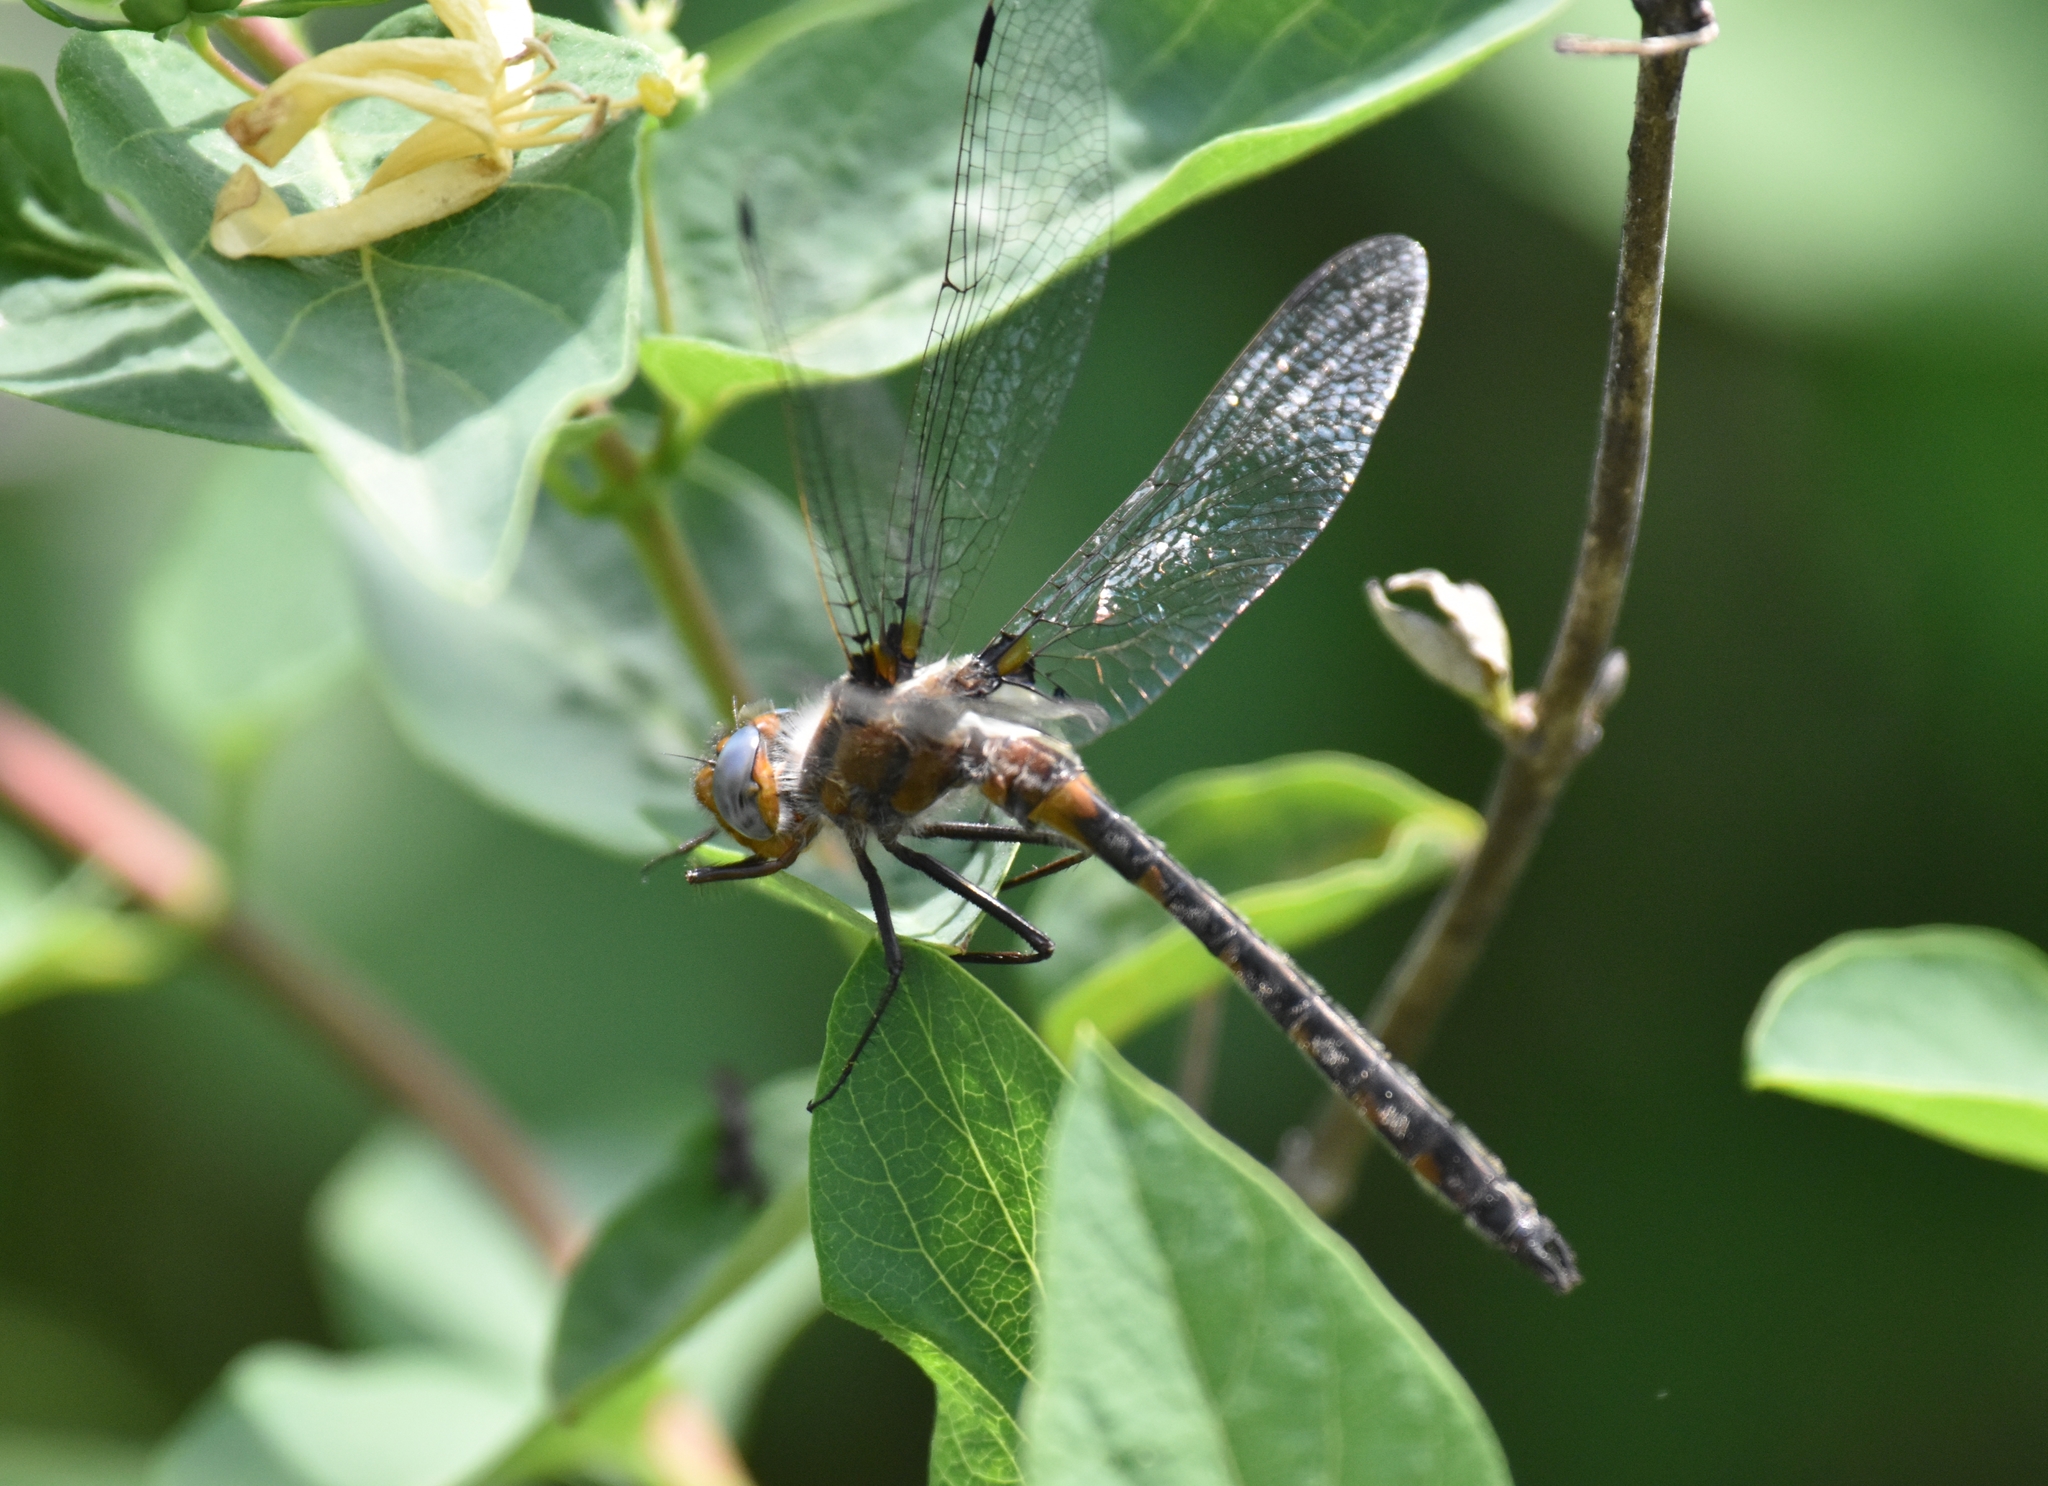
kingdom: Animalia
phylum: Arthropoda
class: Insecta
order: Odonata
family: Corduliidae
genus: Helocordulia
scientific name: Helocordulia uhleri
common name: Uhler's sundragon
